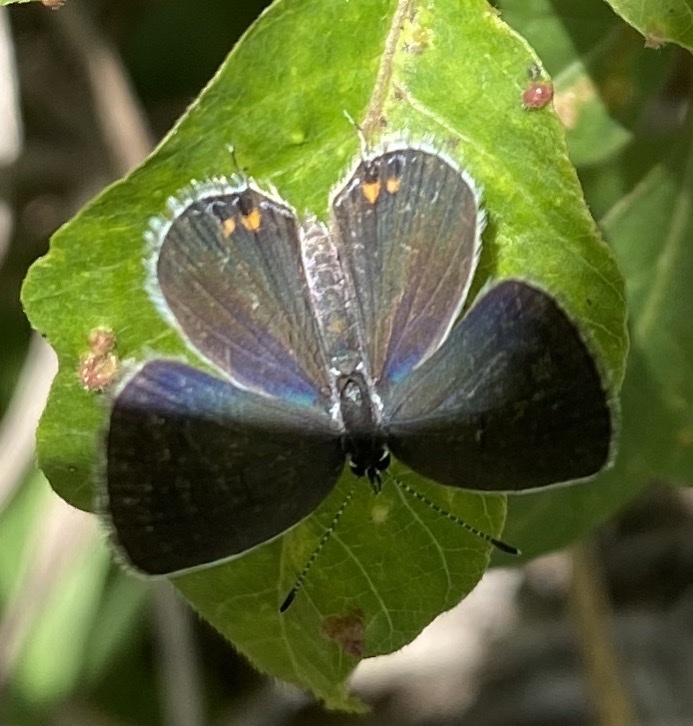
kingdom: Animalia
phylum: Arthropoda
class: Insecta
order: Lepidoptera
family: Lycaenidae
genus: Elkalyce
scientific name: Elkalyce comyntas
